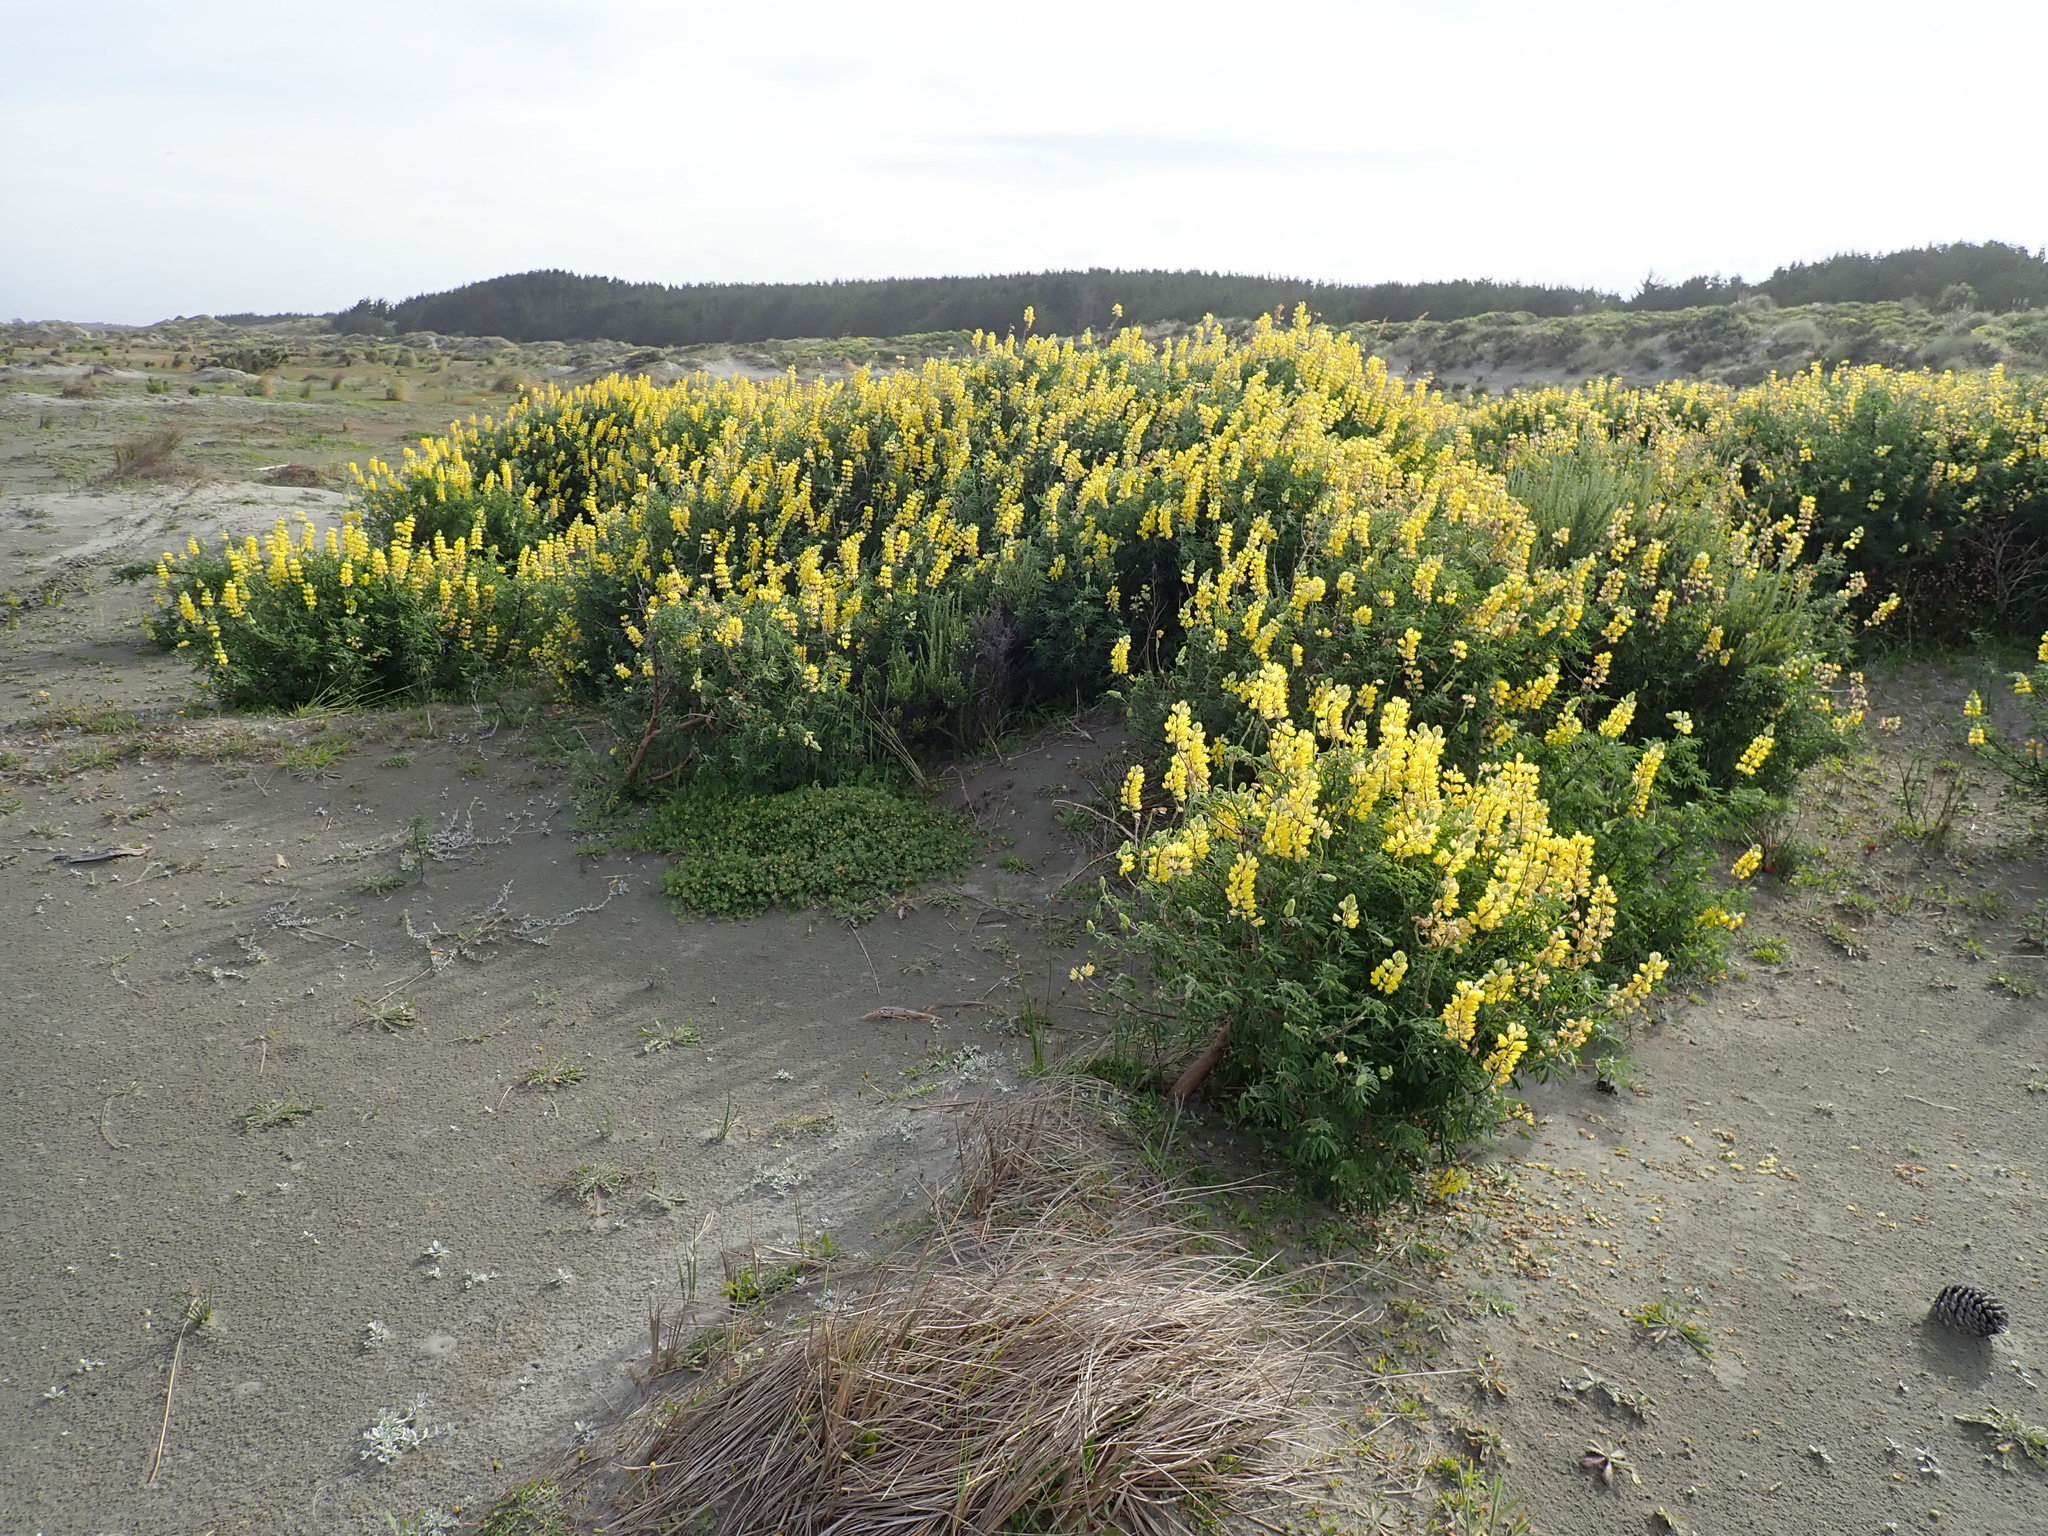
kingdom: Plantae
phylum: Tracheophyta
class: Magnoliopsida
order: Fabales
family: Fabaceae
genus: Lupinus
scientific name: Lupinus arboreus
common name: Yellow bush lupine
